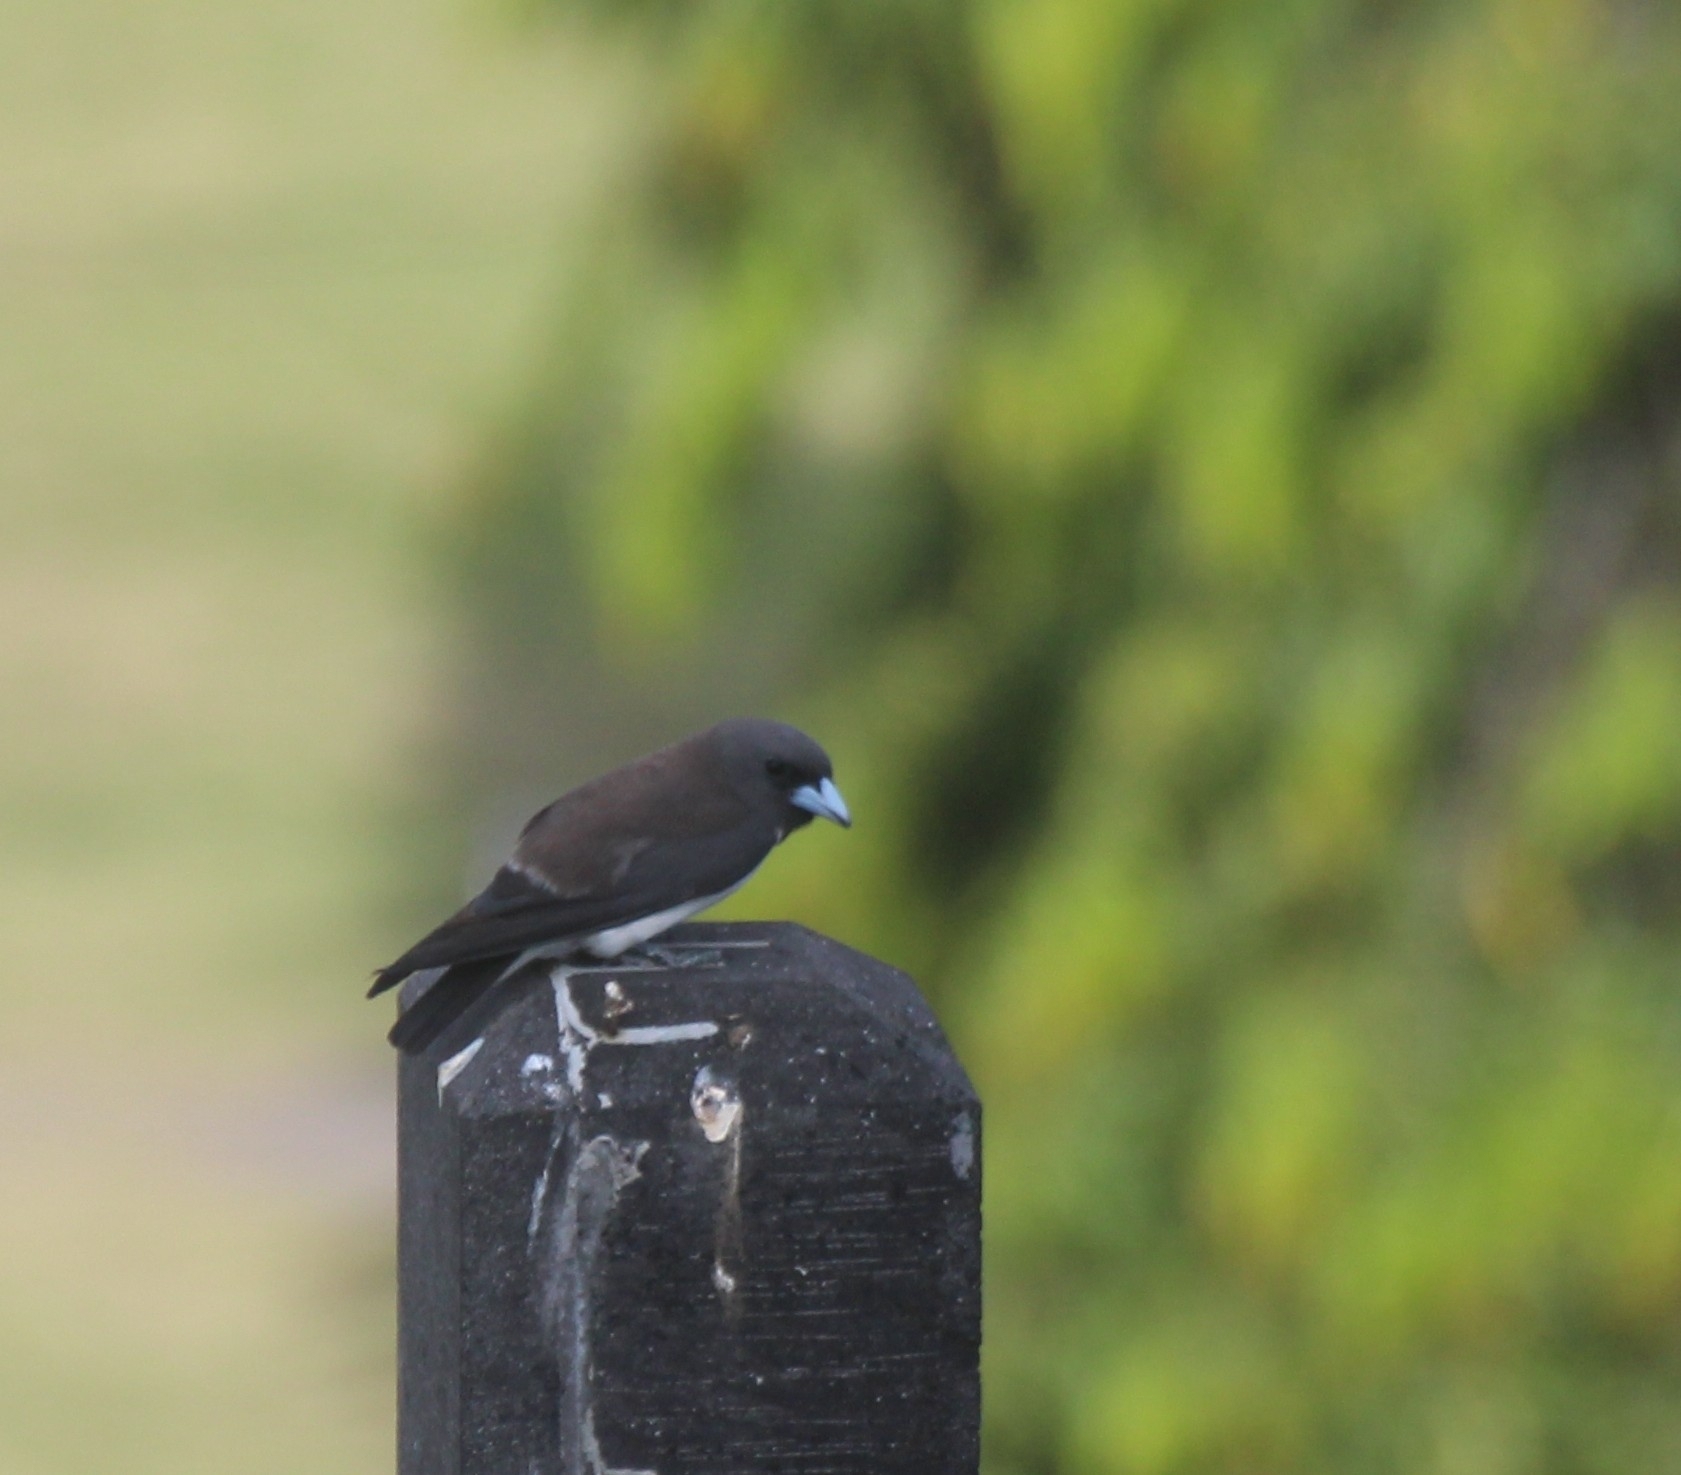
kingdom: Animalia
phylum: Chordata
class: Aves
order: Passeriformes
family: Artamidae
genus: Artamus
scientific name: Artamus leucoryn
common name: White-breasted woodswallow
